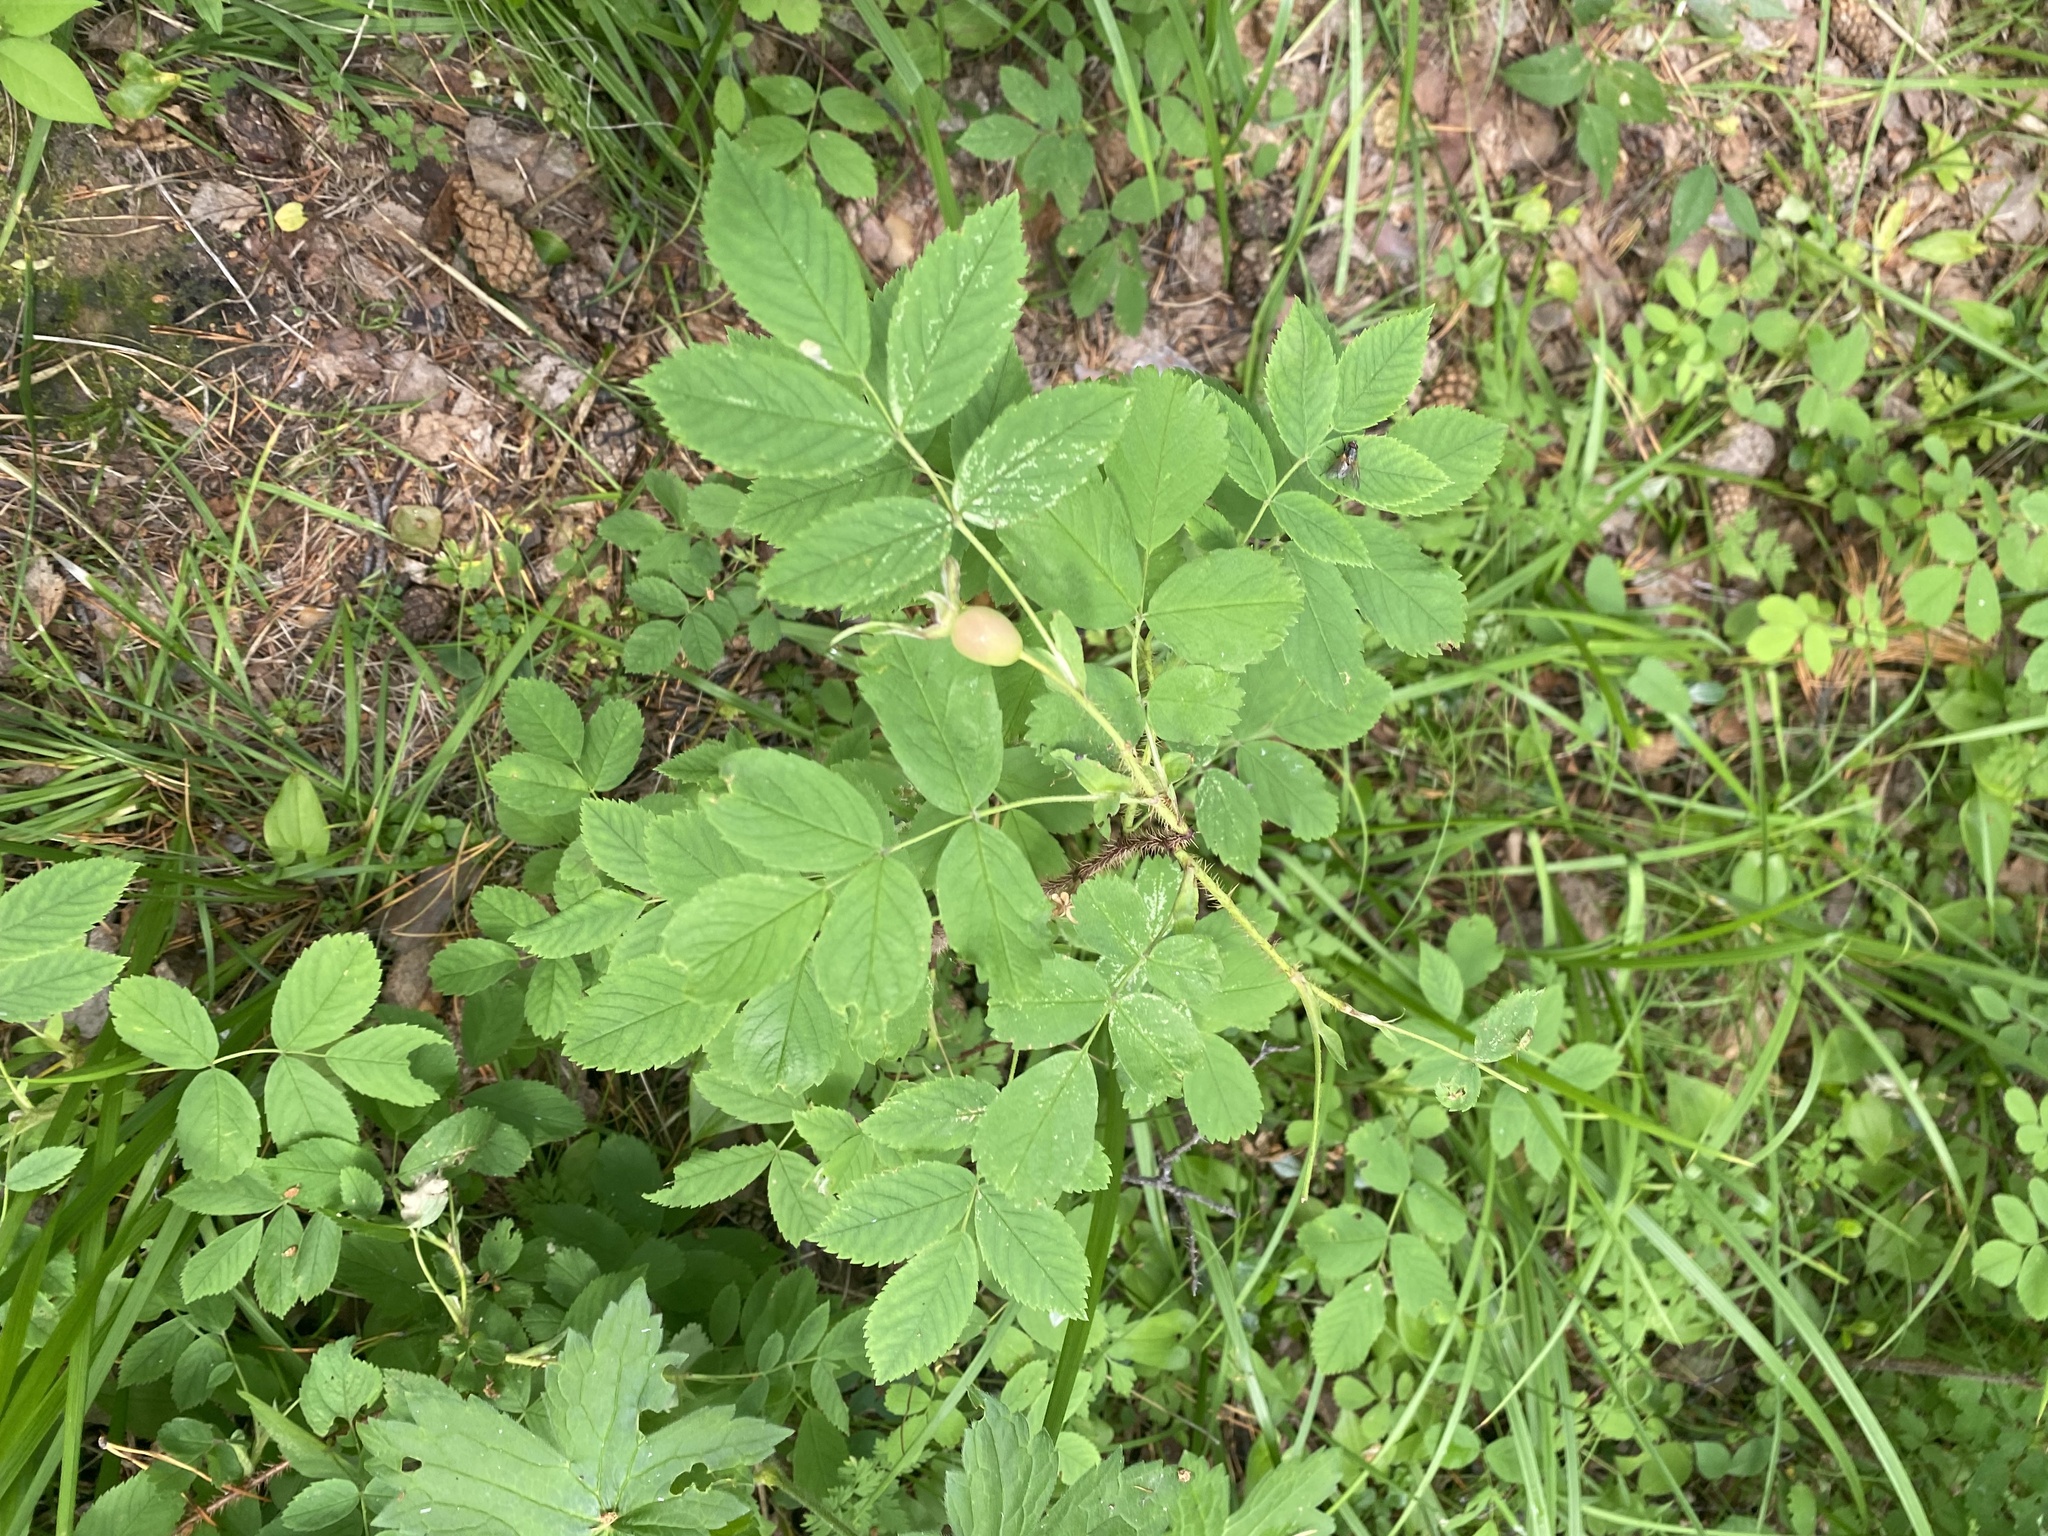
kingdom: Plantae
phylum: Tracheophyta
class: Magnoliopsida
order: Rosales
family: Rosaceae
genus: Rosa
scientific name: Rosa acicularis
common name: Prickly rose
